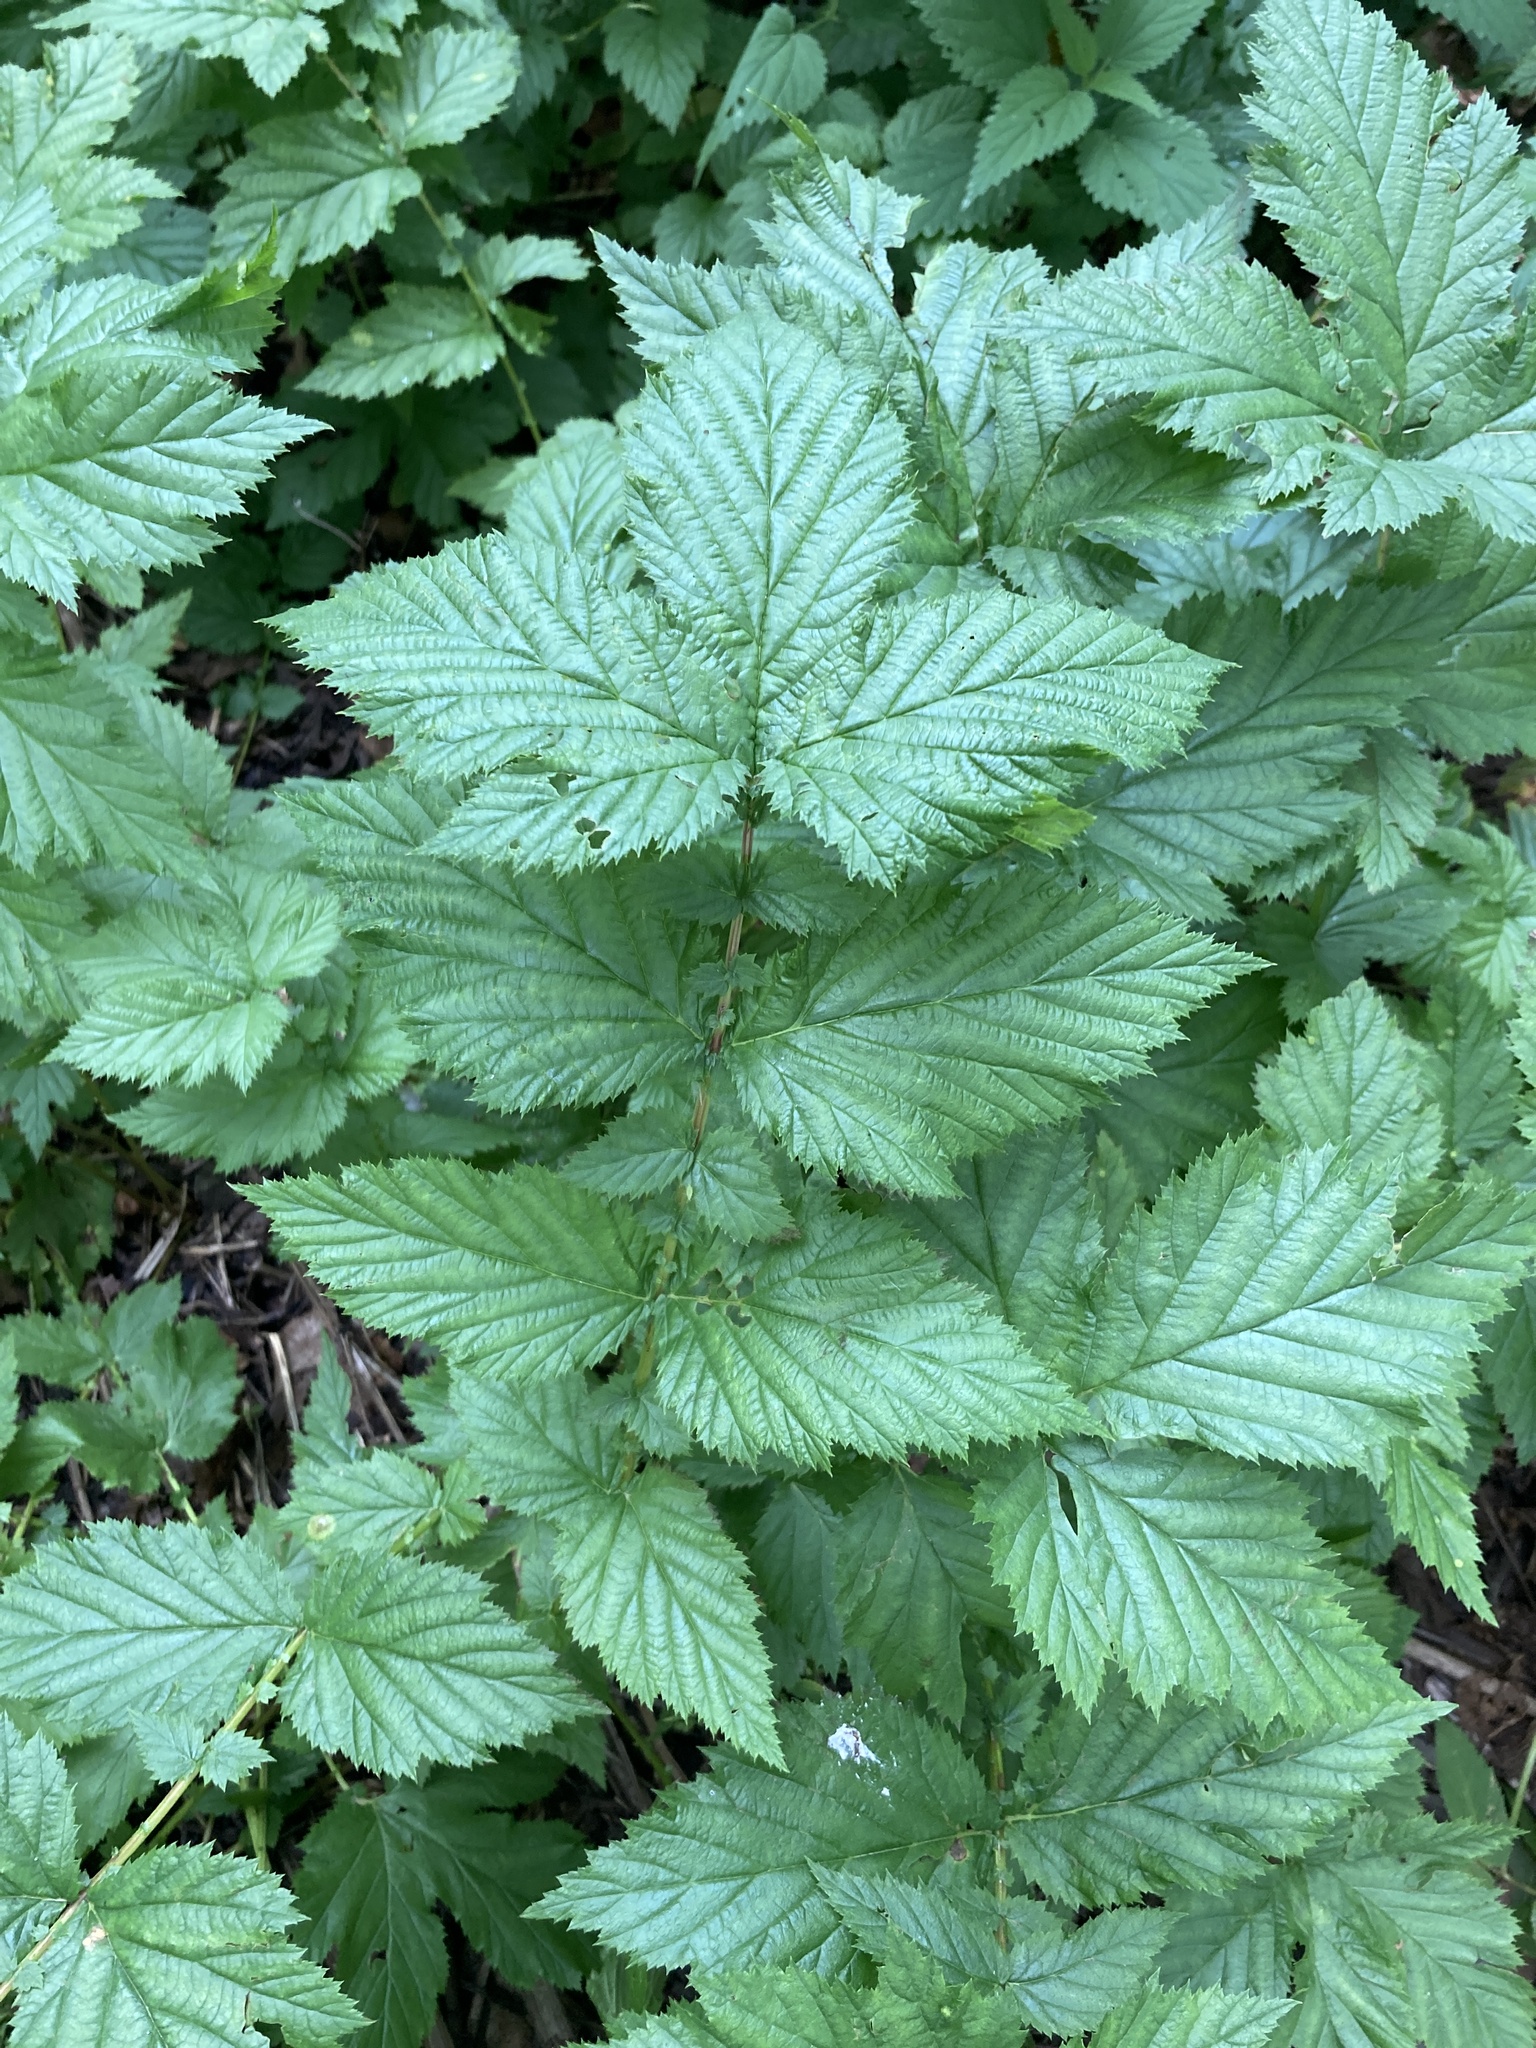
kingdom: Plantae
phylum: Tracheophyta
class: Magnoliopsida
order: Rosales
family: Rosaceae
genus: Filipendula
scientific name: Filipendula ulmaria
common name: Meadowsweet
